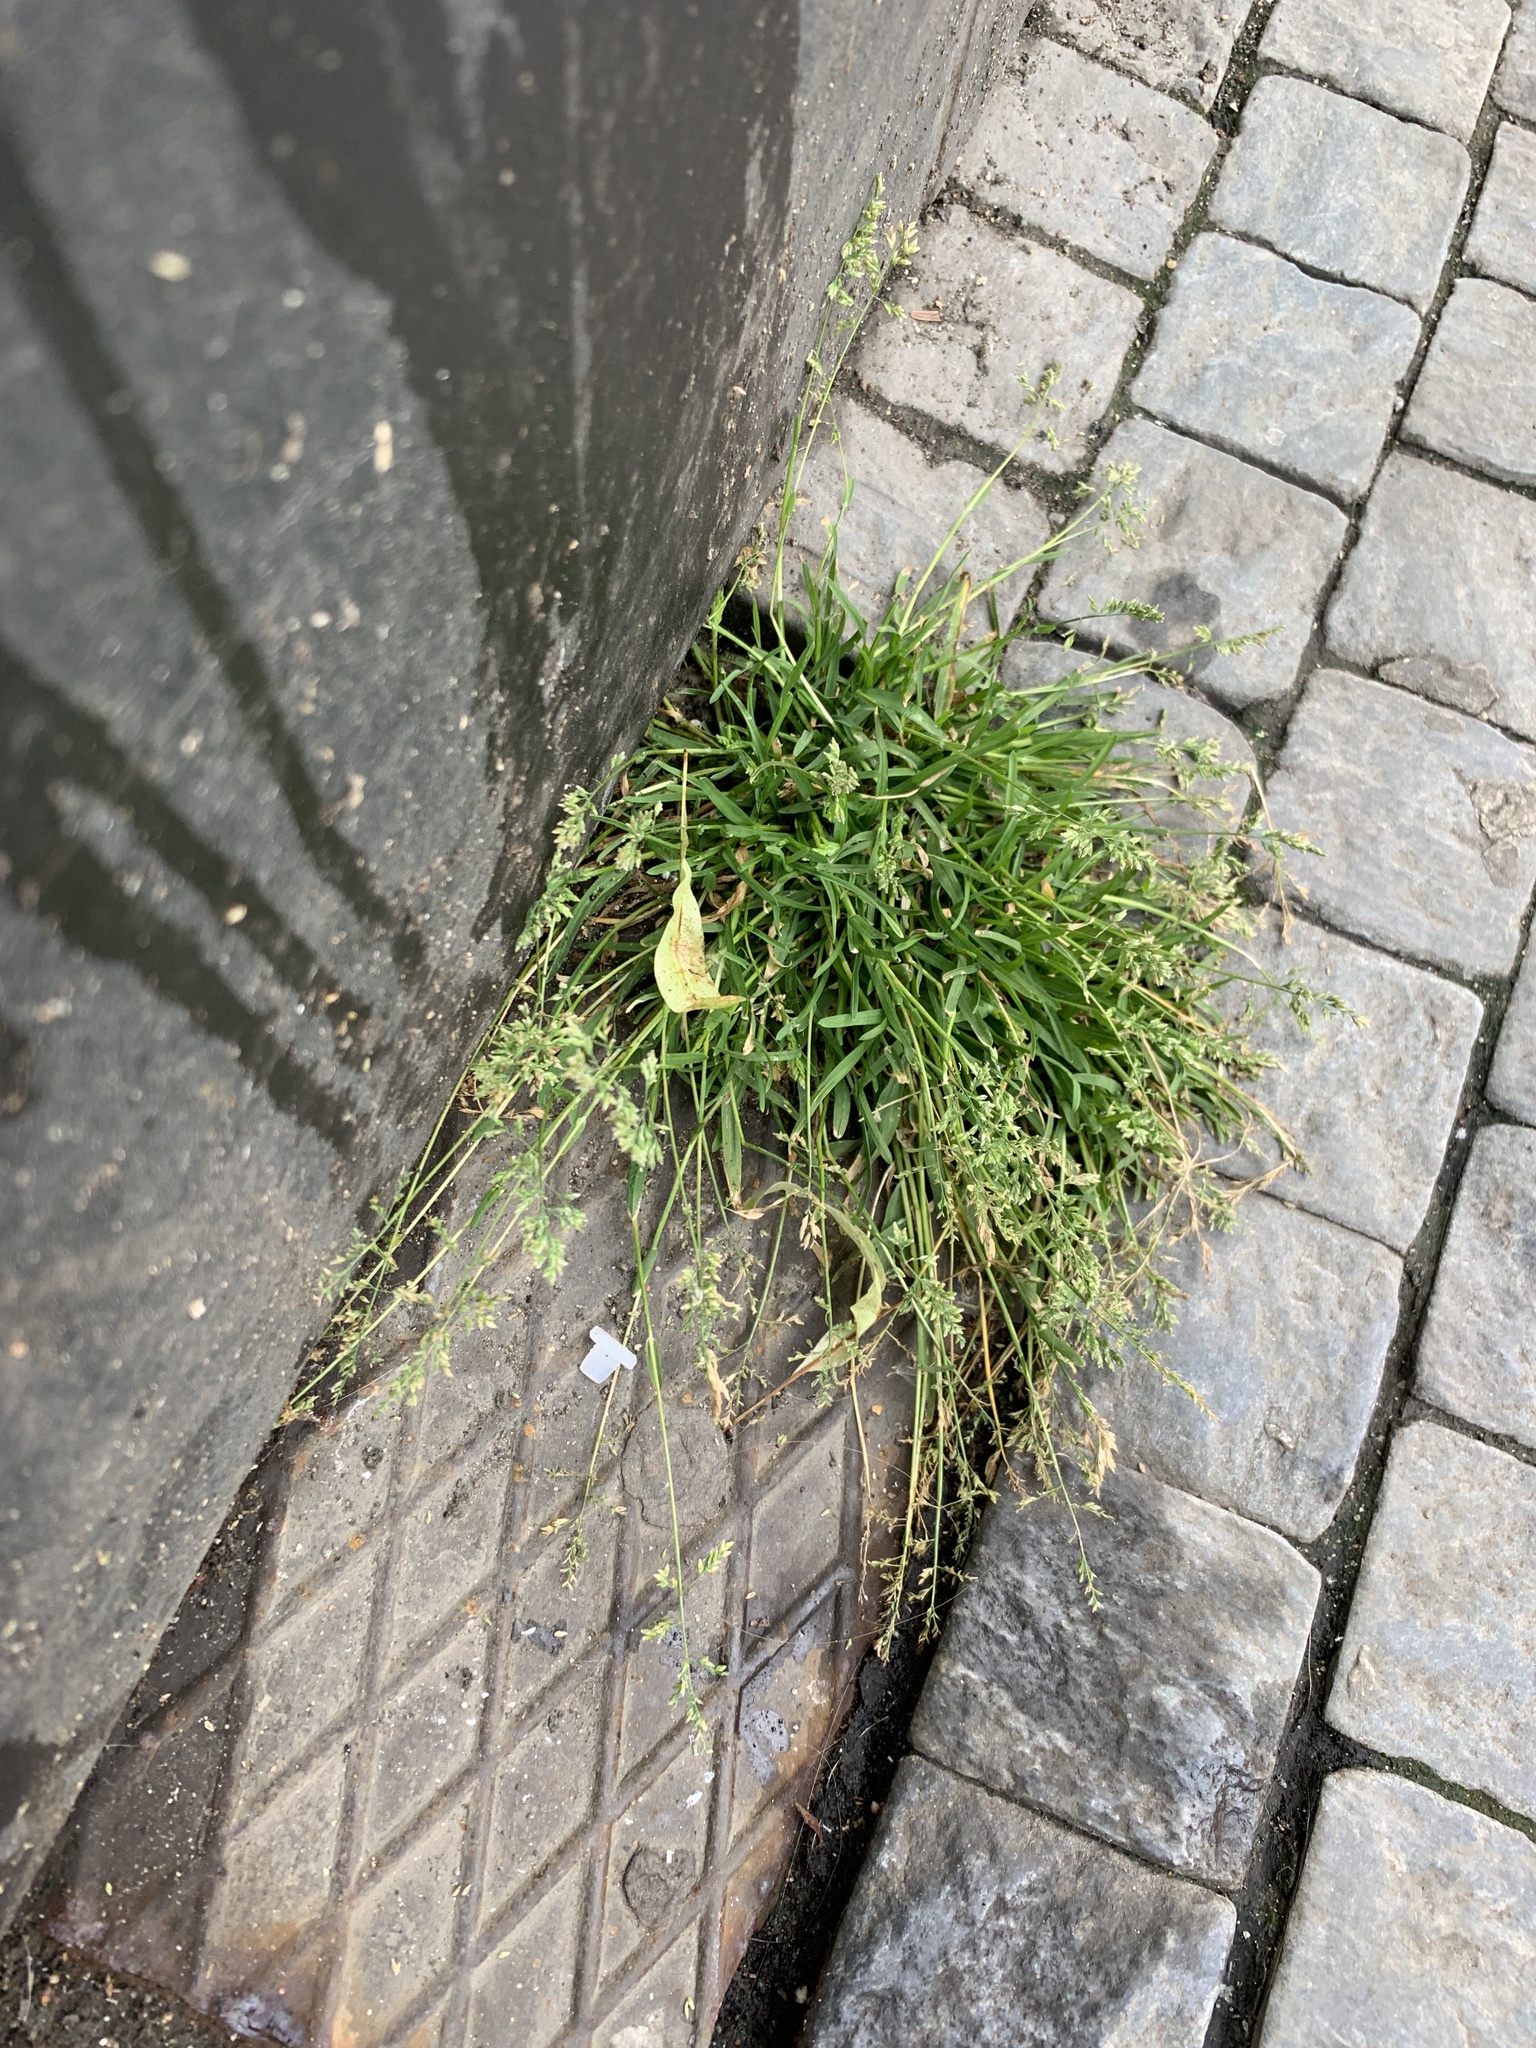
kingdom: Plantae
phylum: Tracheophyta
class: Liliopsida
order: Poales
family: Poaceae
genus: Poa
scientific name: Poa annua
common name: Annual bluegrass
